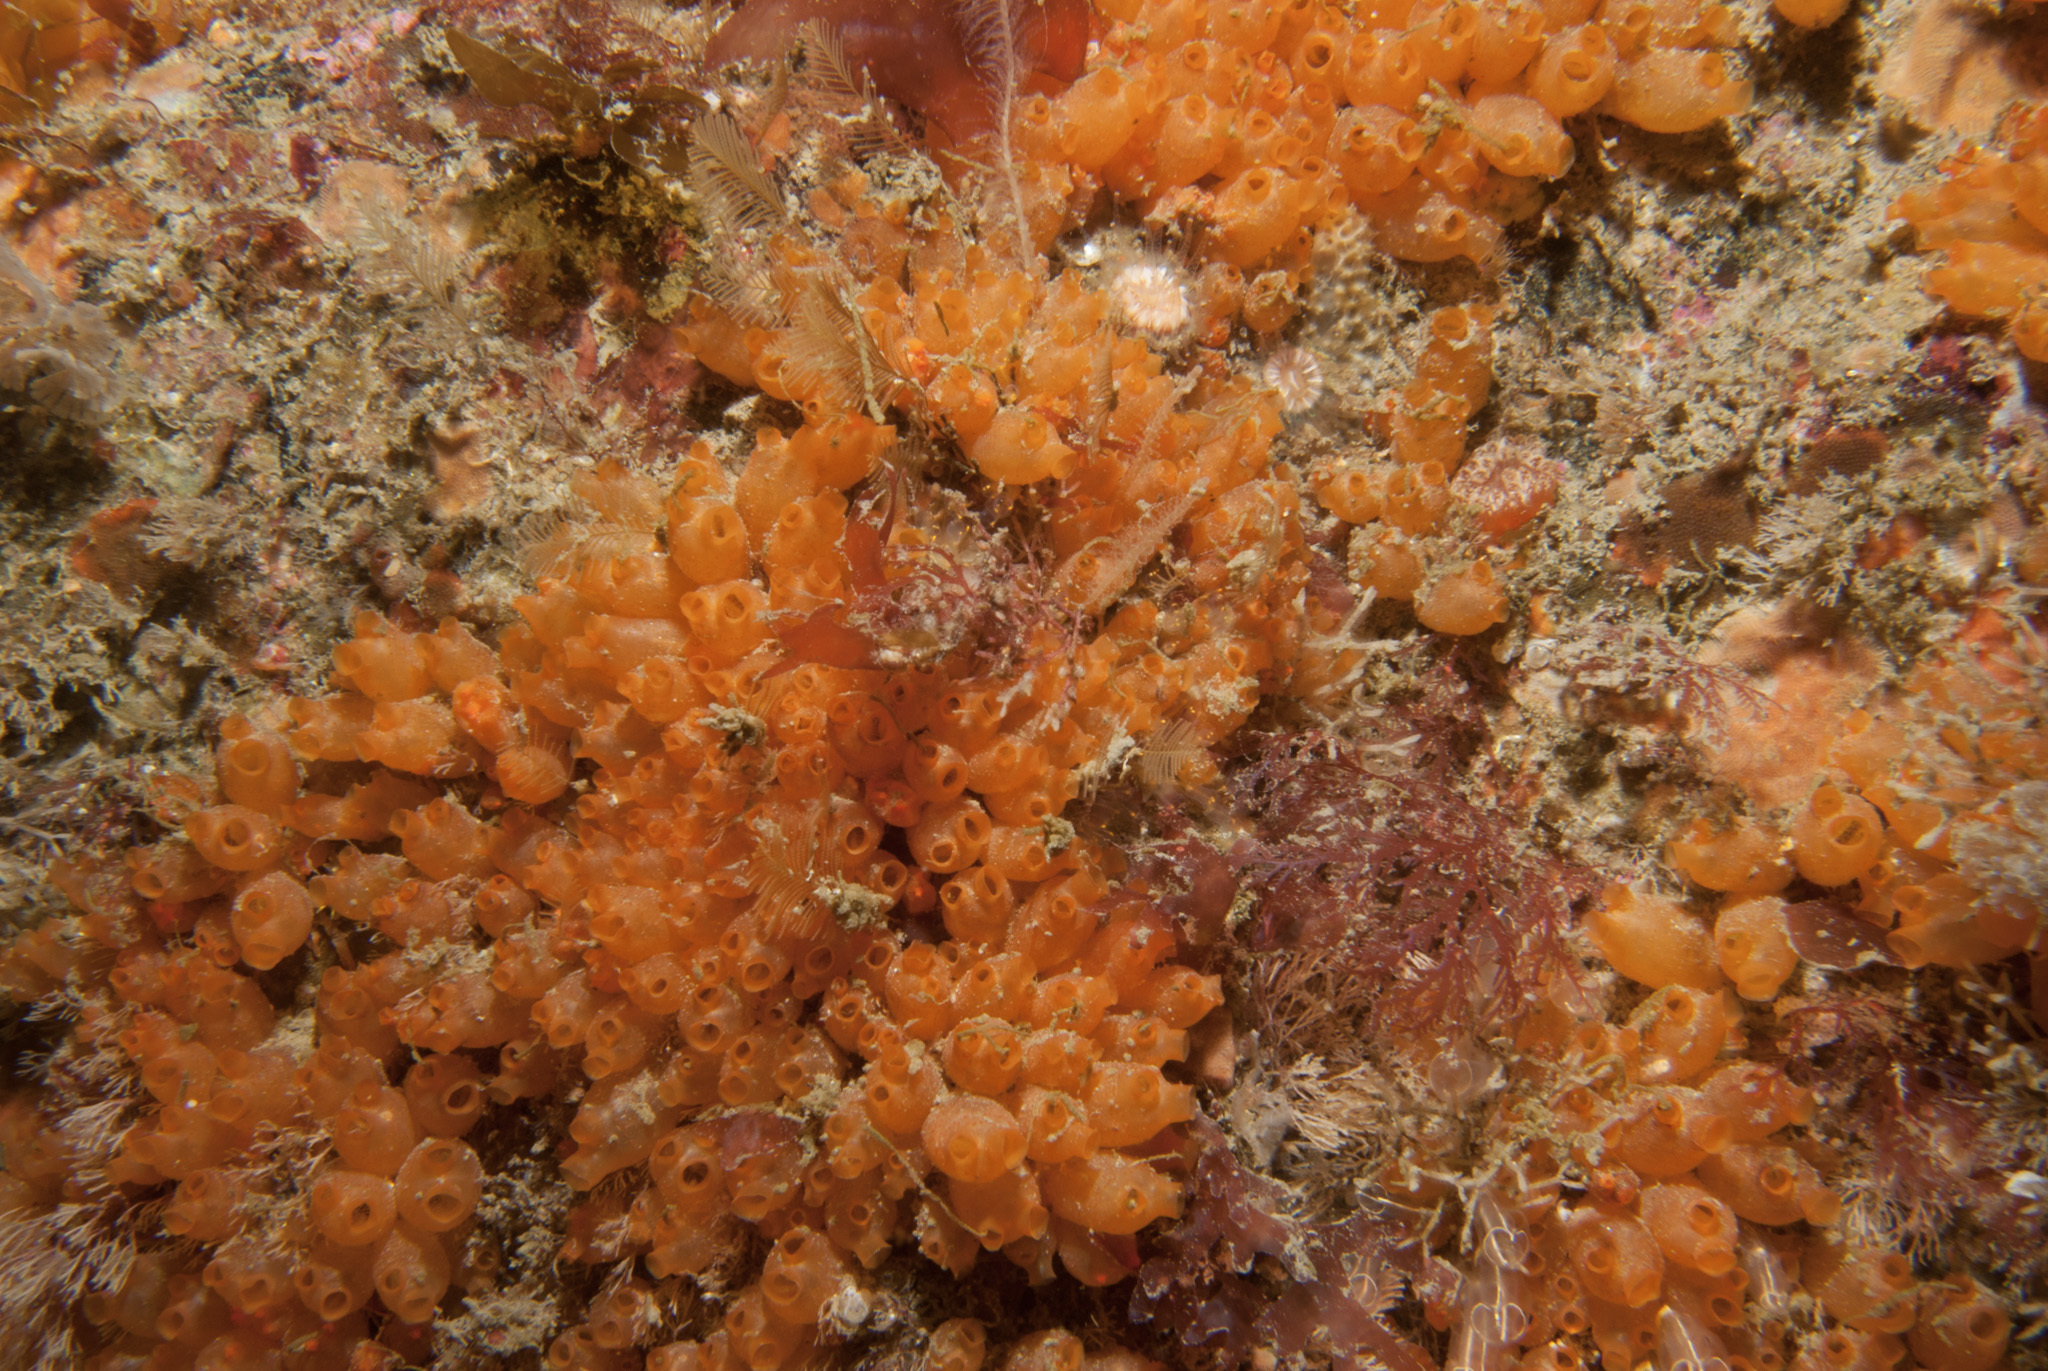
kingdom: Animalia
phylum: Chordata
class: Ascidiacea
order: Stolidobranchia
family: Styelidae
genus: Stolonica
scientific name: Stolonica socialis
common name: Orange sea grapes
